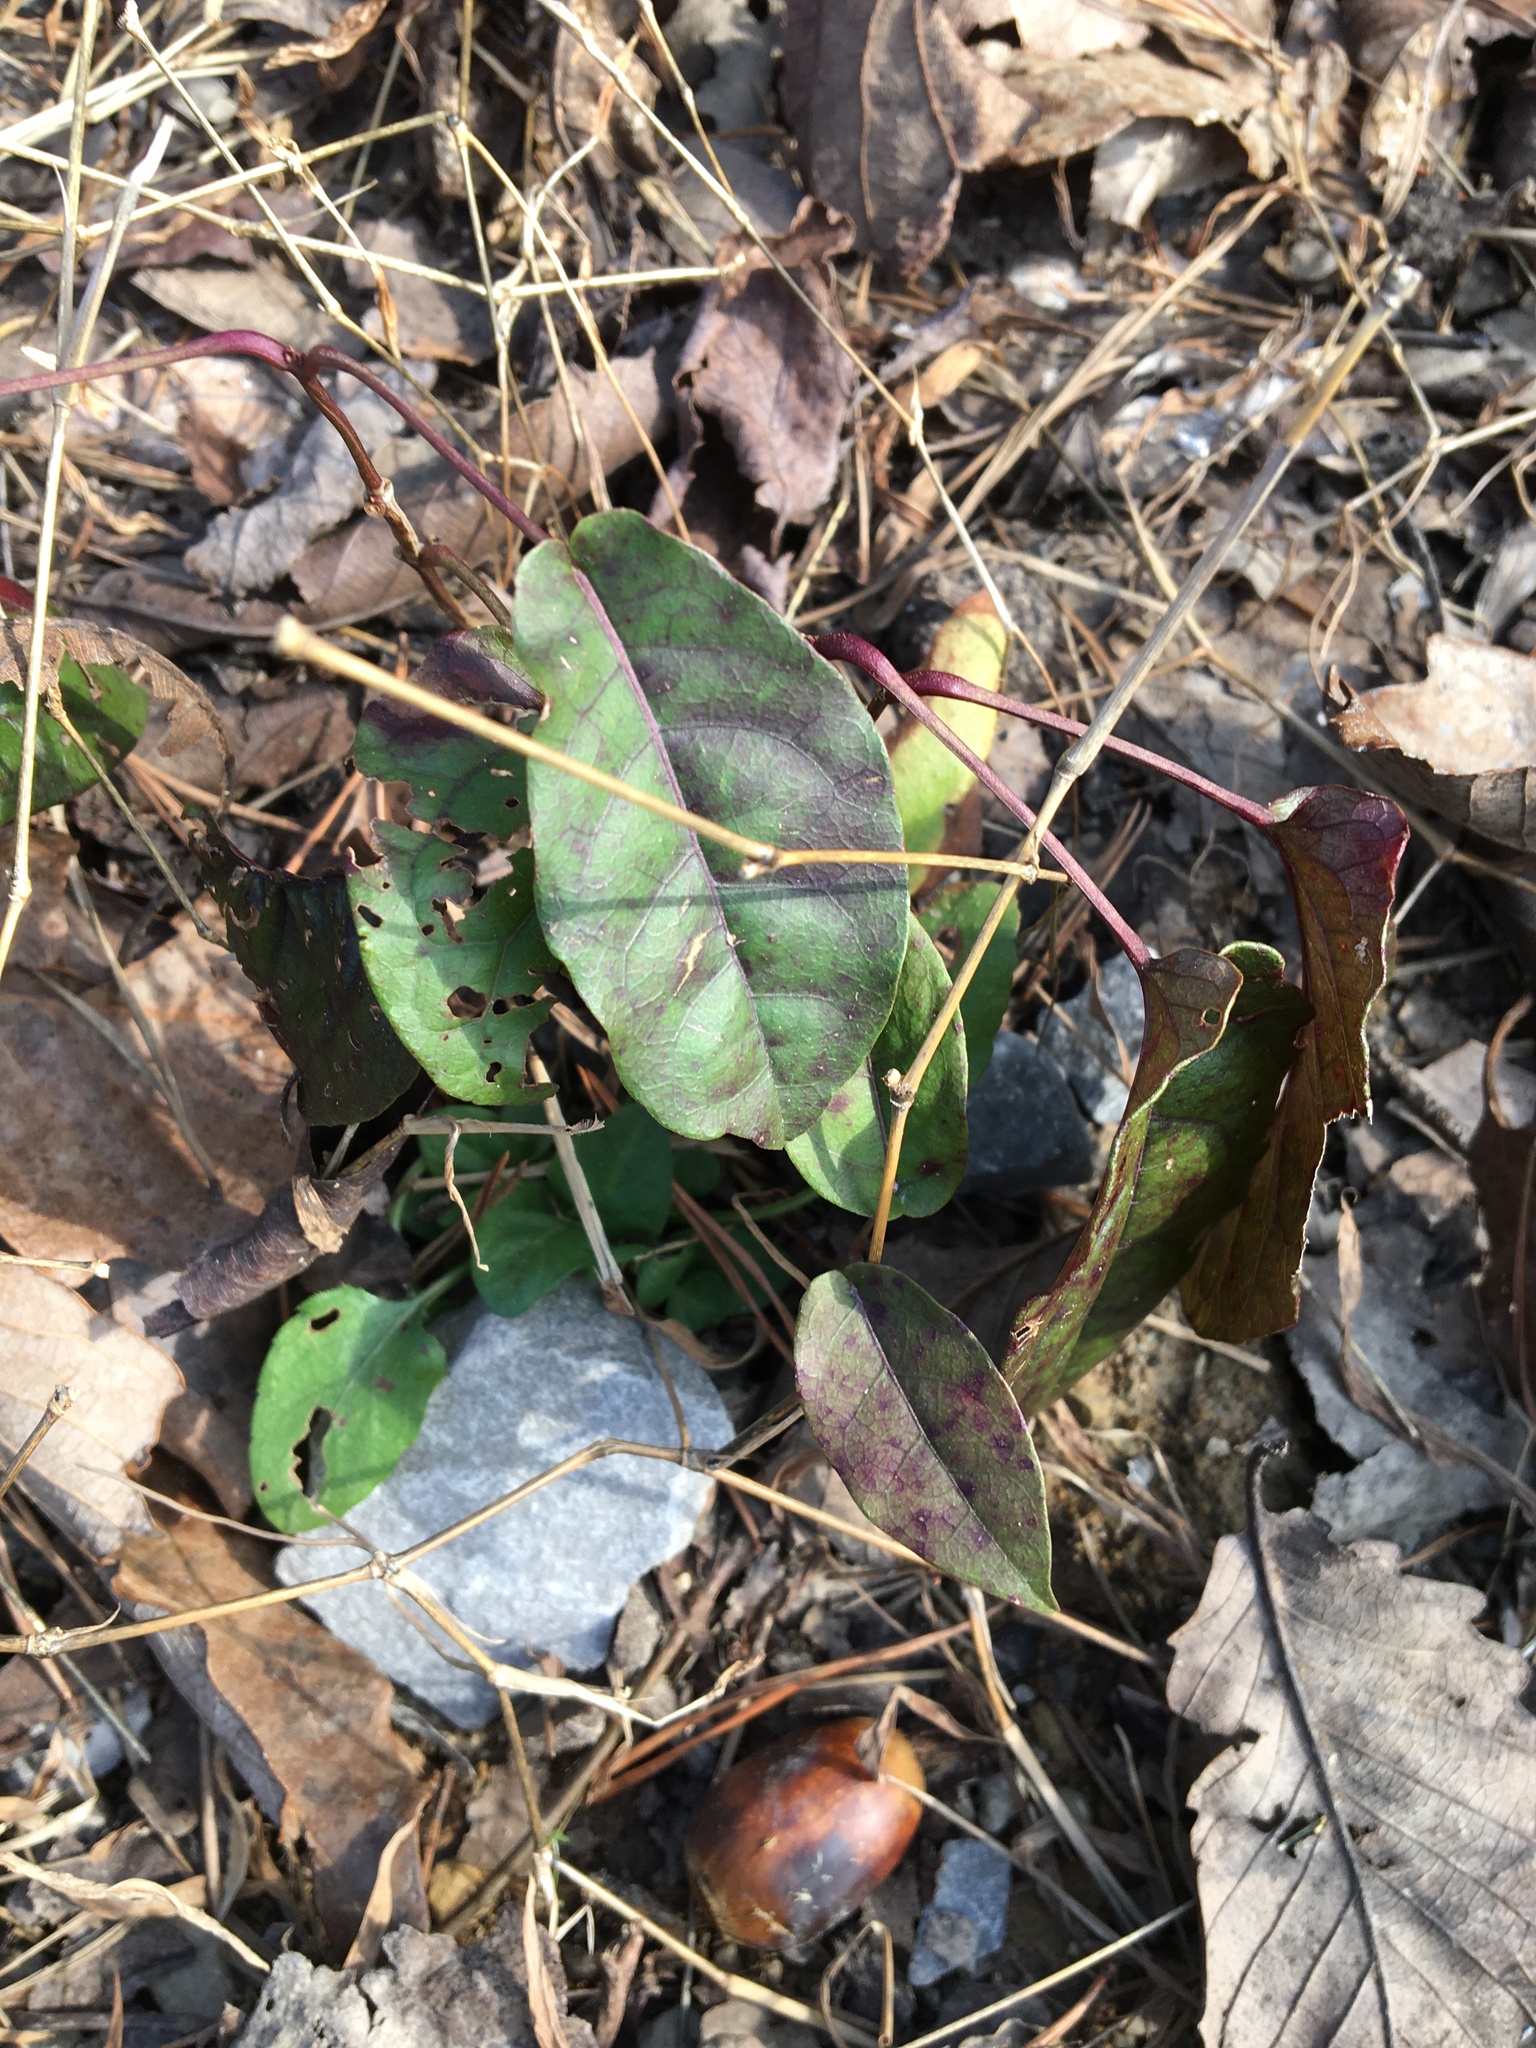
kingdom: Plantae
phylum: Tracheophyta
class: Magnoliopsida
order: Lamiales
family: Bignoniaceae
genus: Bignonia
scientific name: Bignonia capreolata
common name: Crossvine
